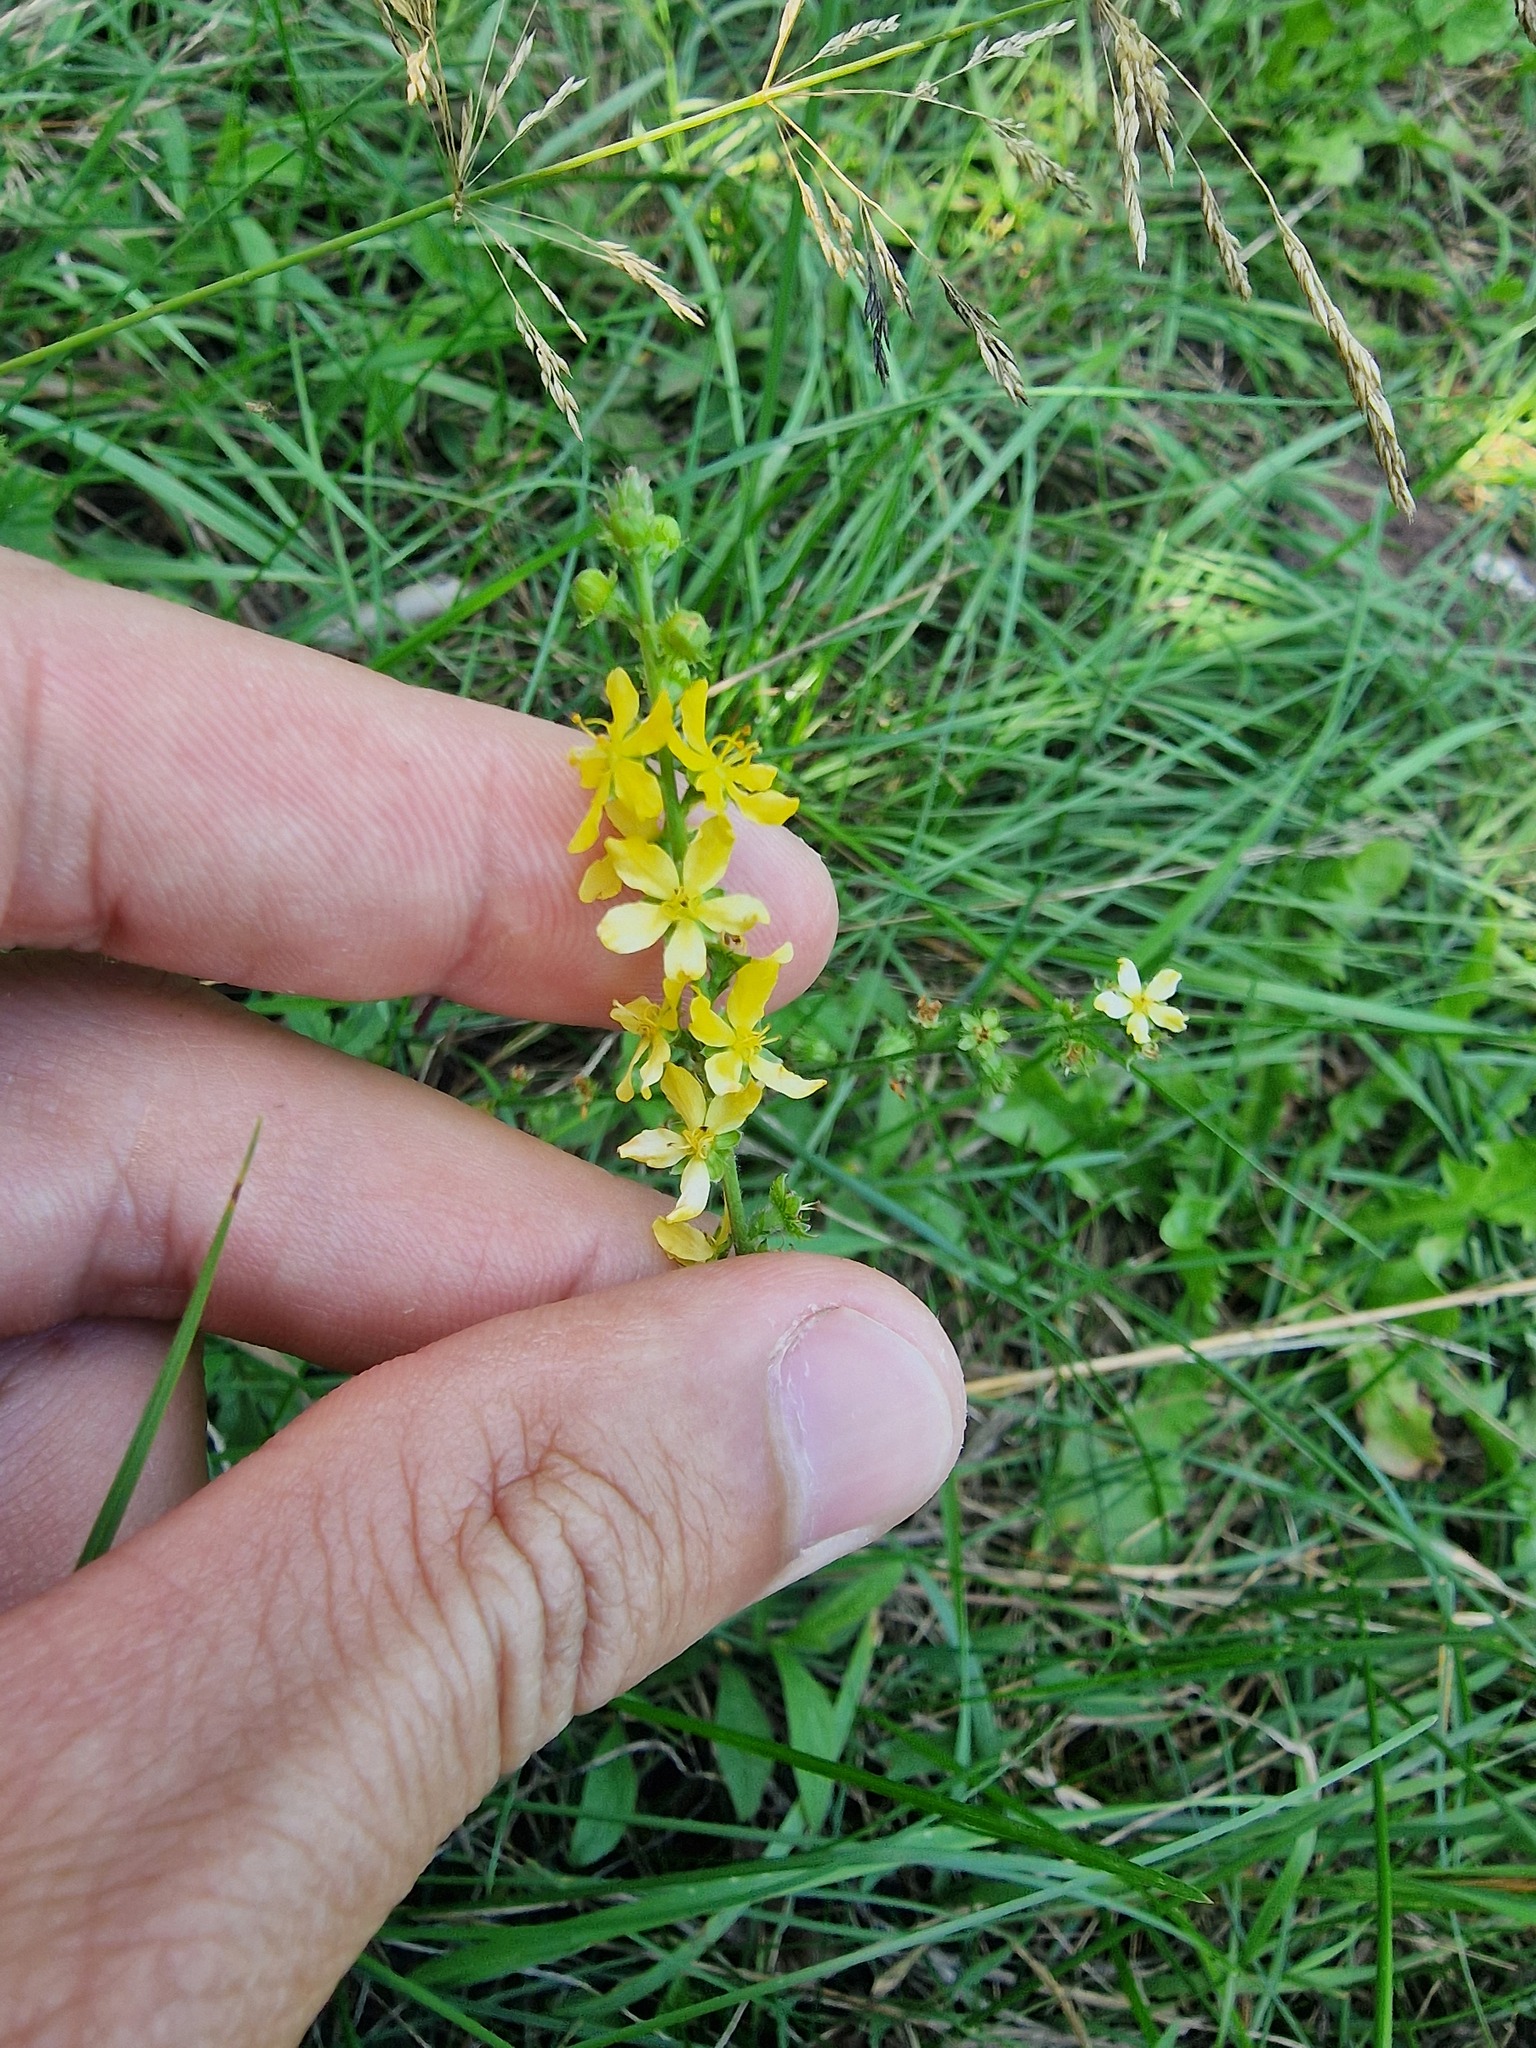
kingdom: Plantae
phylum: Tracheophyta
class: Magnoliopsida
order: Rosales
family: Rosaceae
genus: Agrimonia
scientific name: Agrimonia eupatoria
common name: Agrimony
